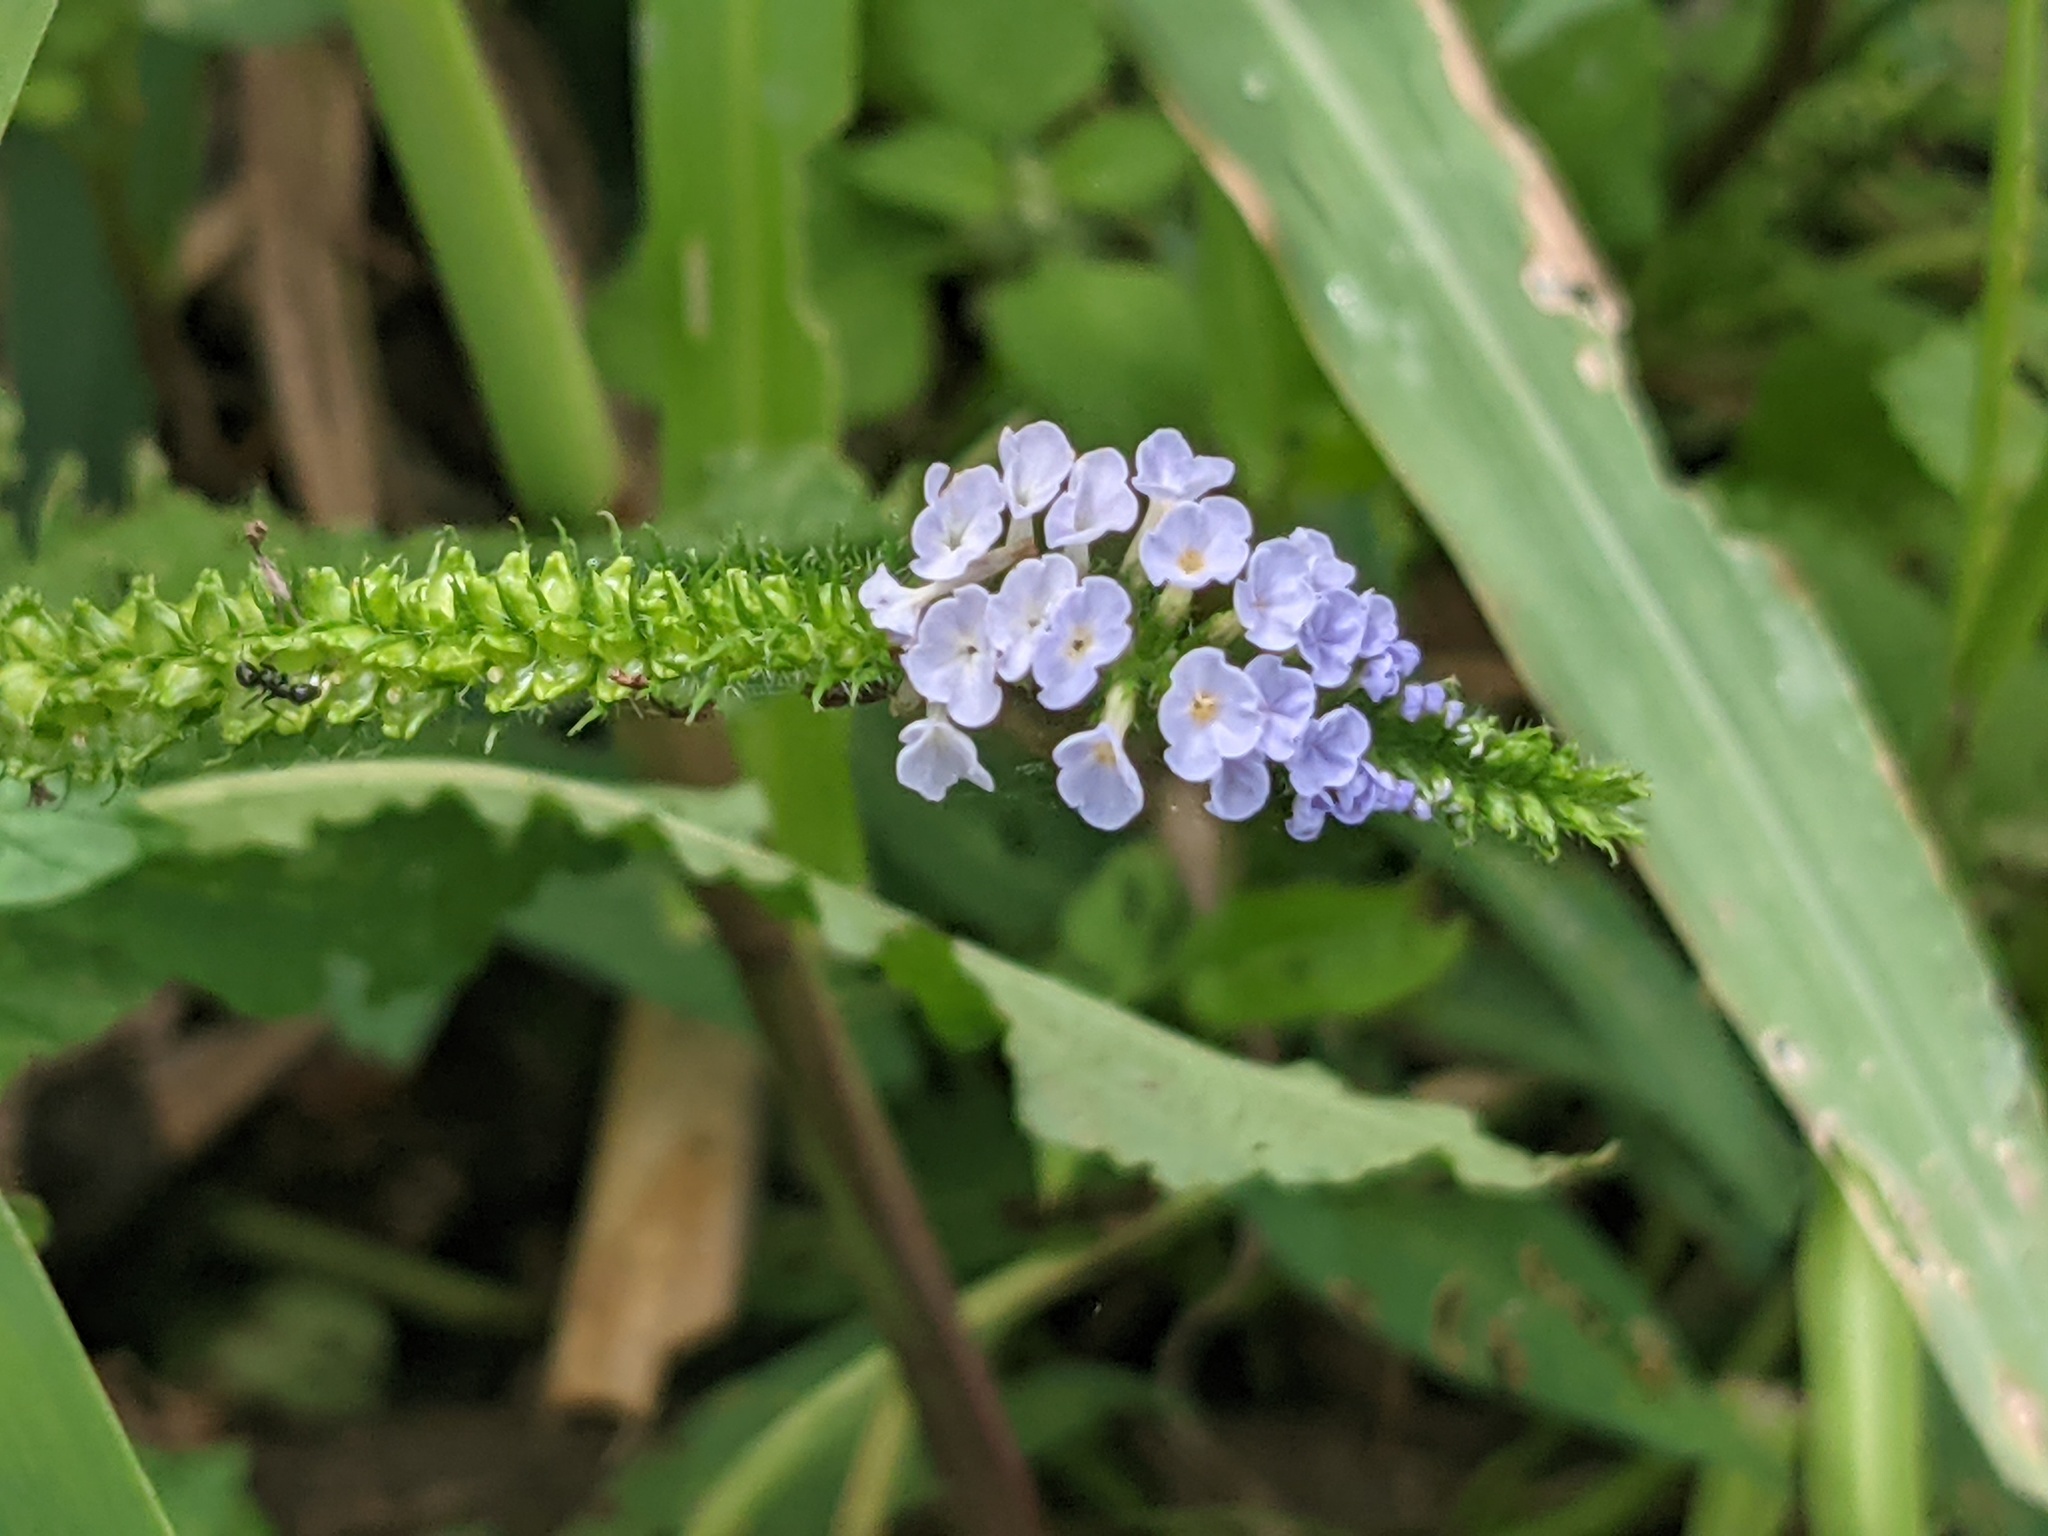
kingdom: Plantae
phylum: Tracheophyta
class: Magnoliopsida
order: Boraginales
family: Heliotropiaceae
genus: Heliotropium
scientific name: Heliotropium indicum
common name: Indian heliotrope
